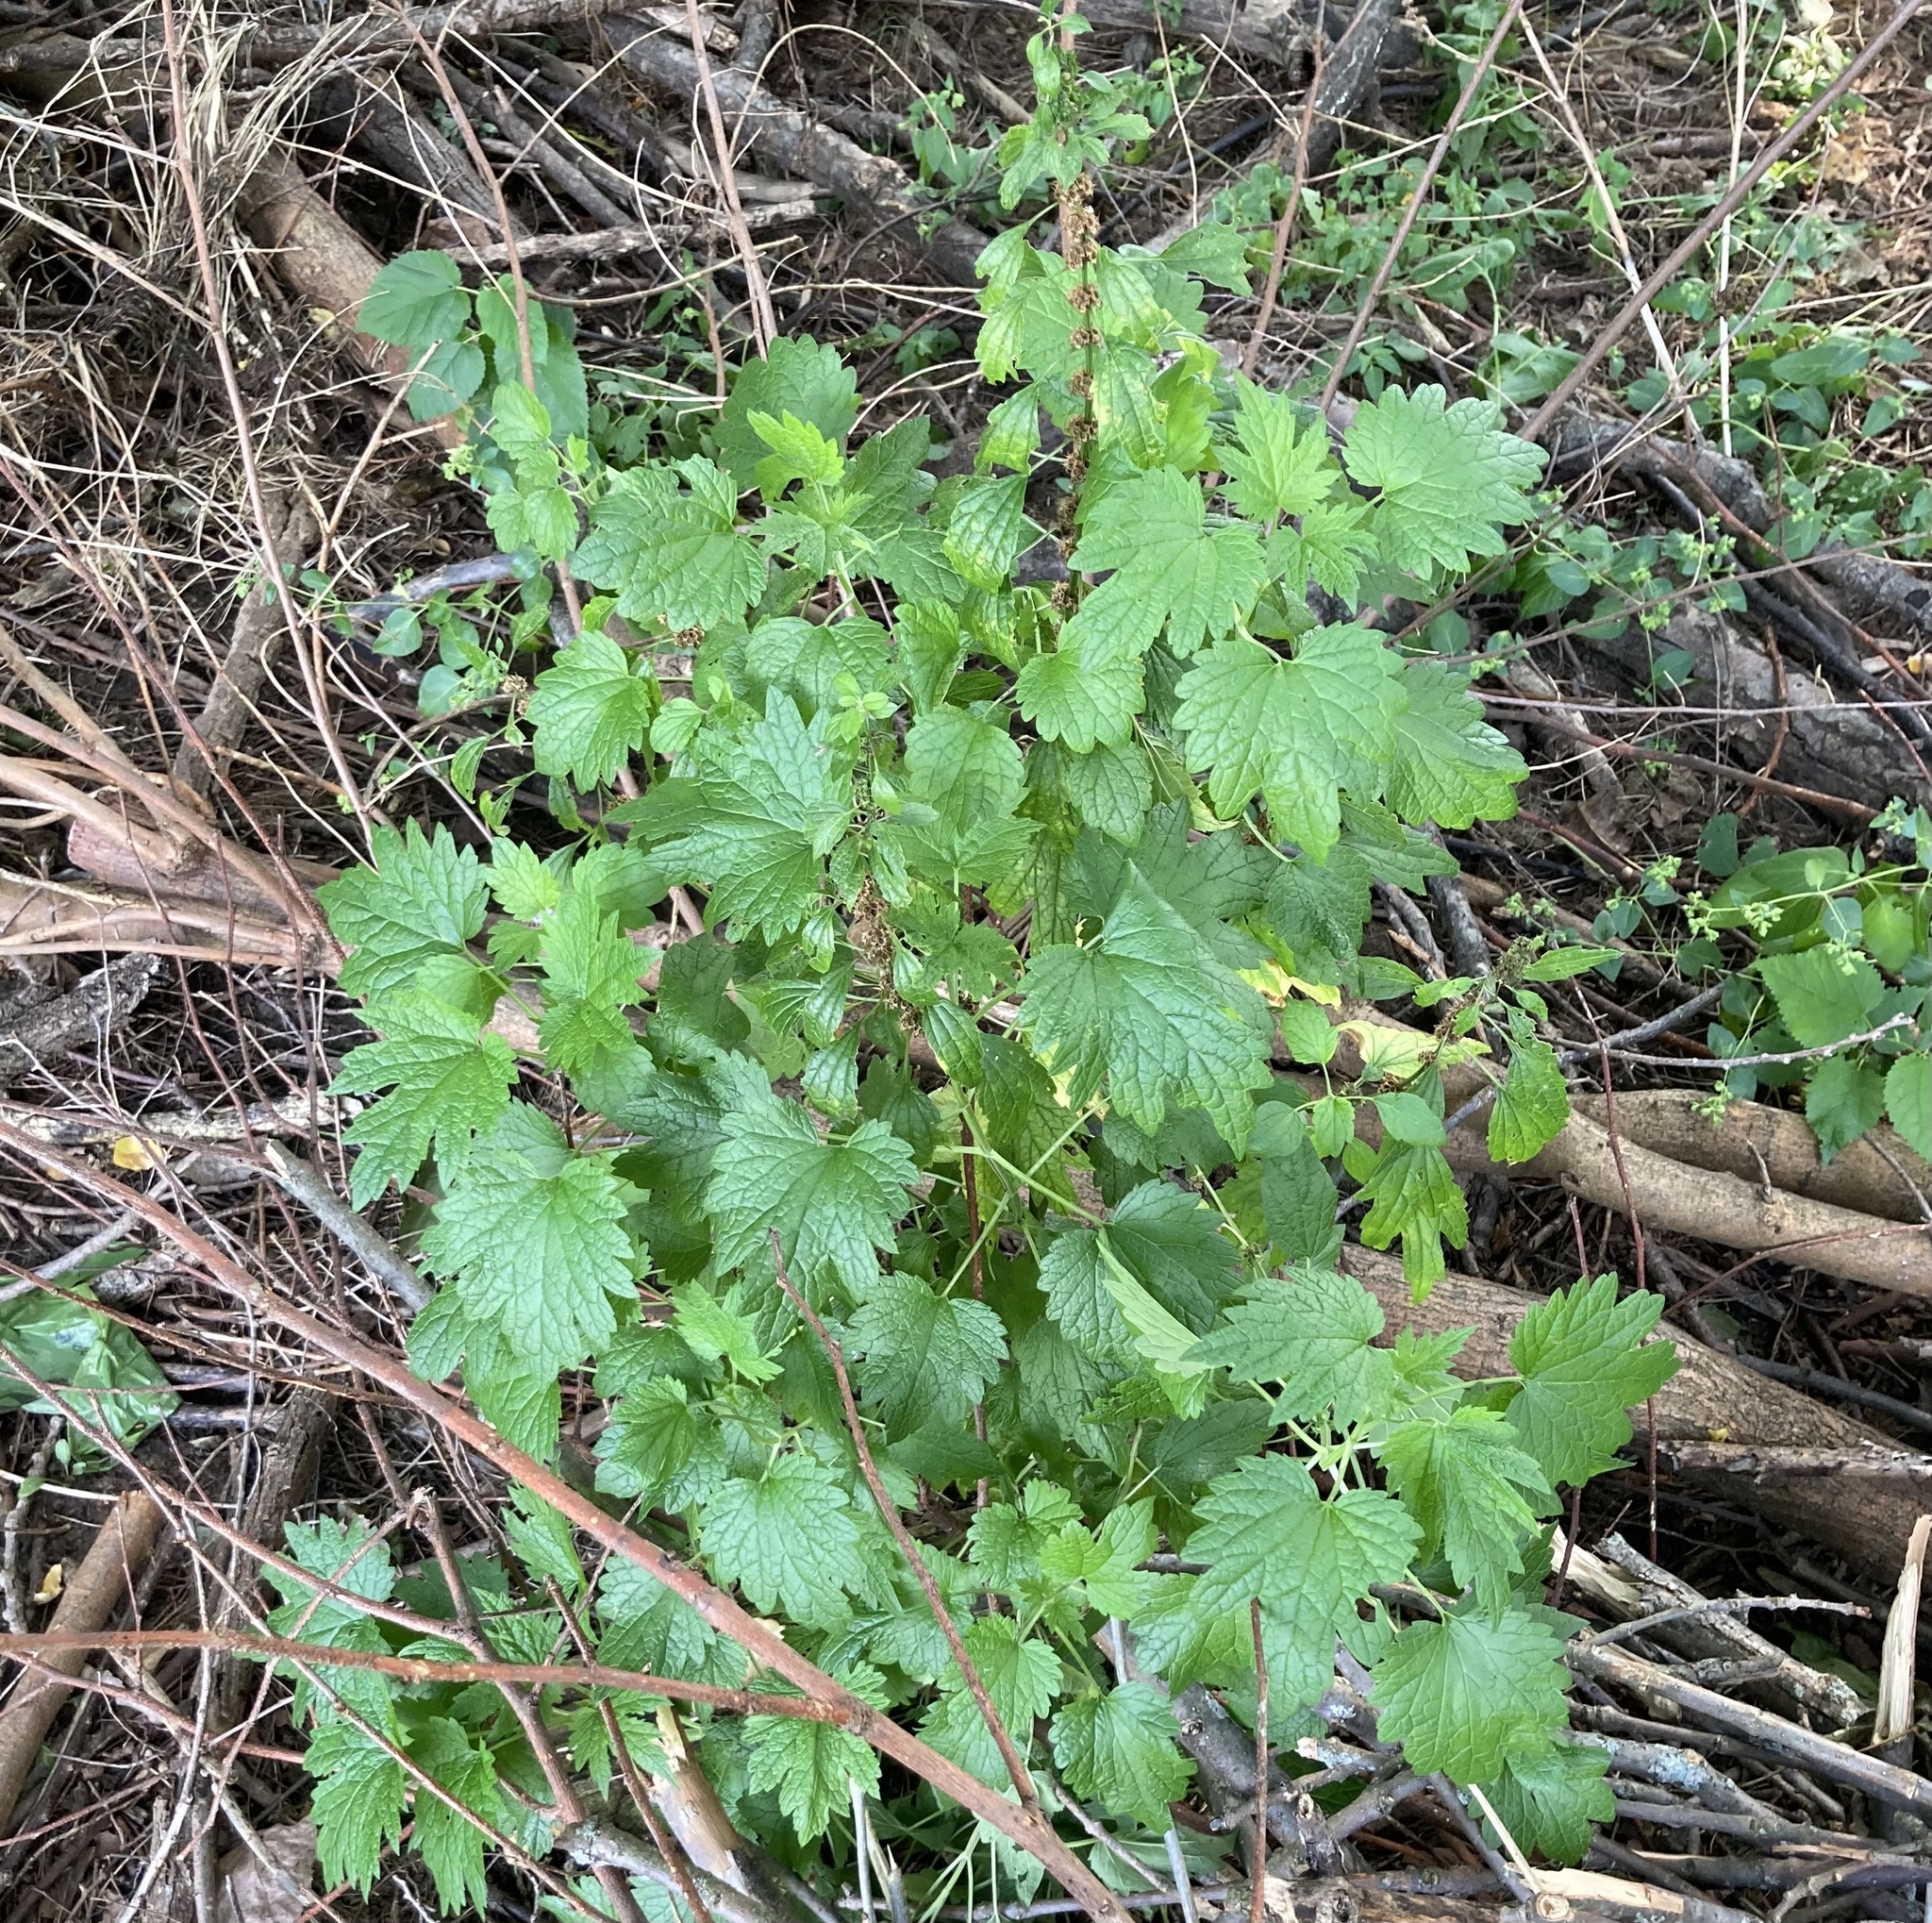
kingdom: Plantae
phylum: Tracheophyta
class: Magnoliopsida
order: Lamiales
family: Lamiaceae
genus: Leonurus
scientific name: Leonurus cardiaca
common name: Motherwort
